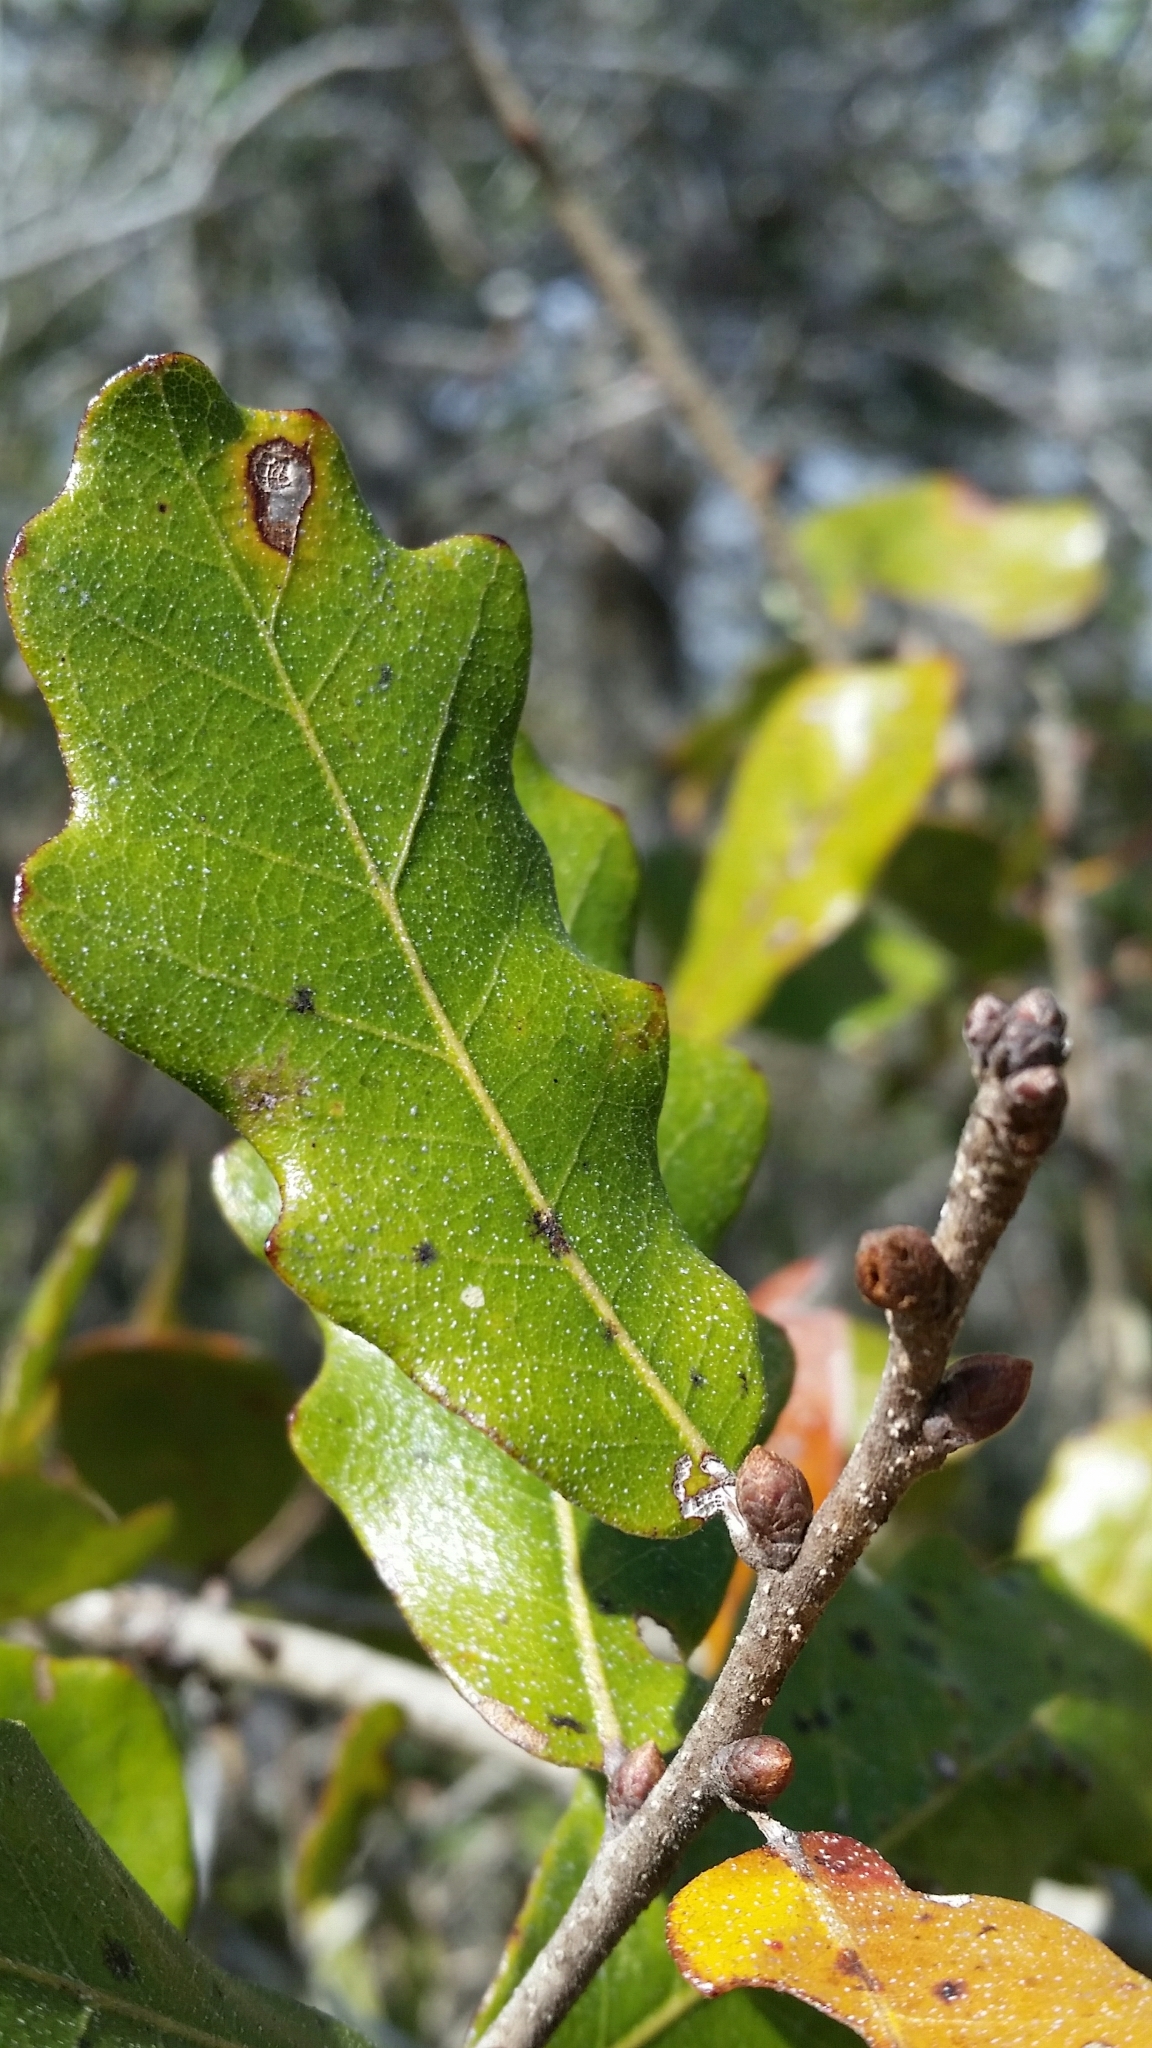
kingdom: Plantae
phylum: Tracheophyta
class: Magnoliopsida
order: Fagales
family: Fagaceae
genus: Quercus
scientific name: Quercus chapmanii
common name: Chapman oak
